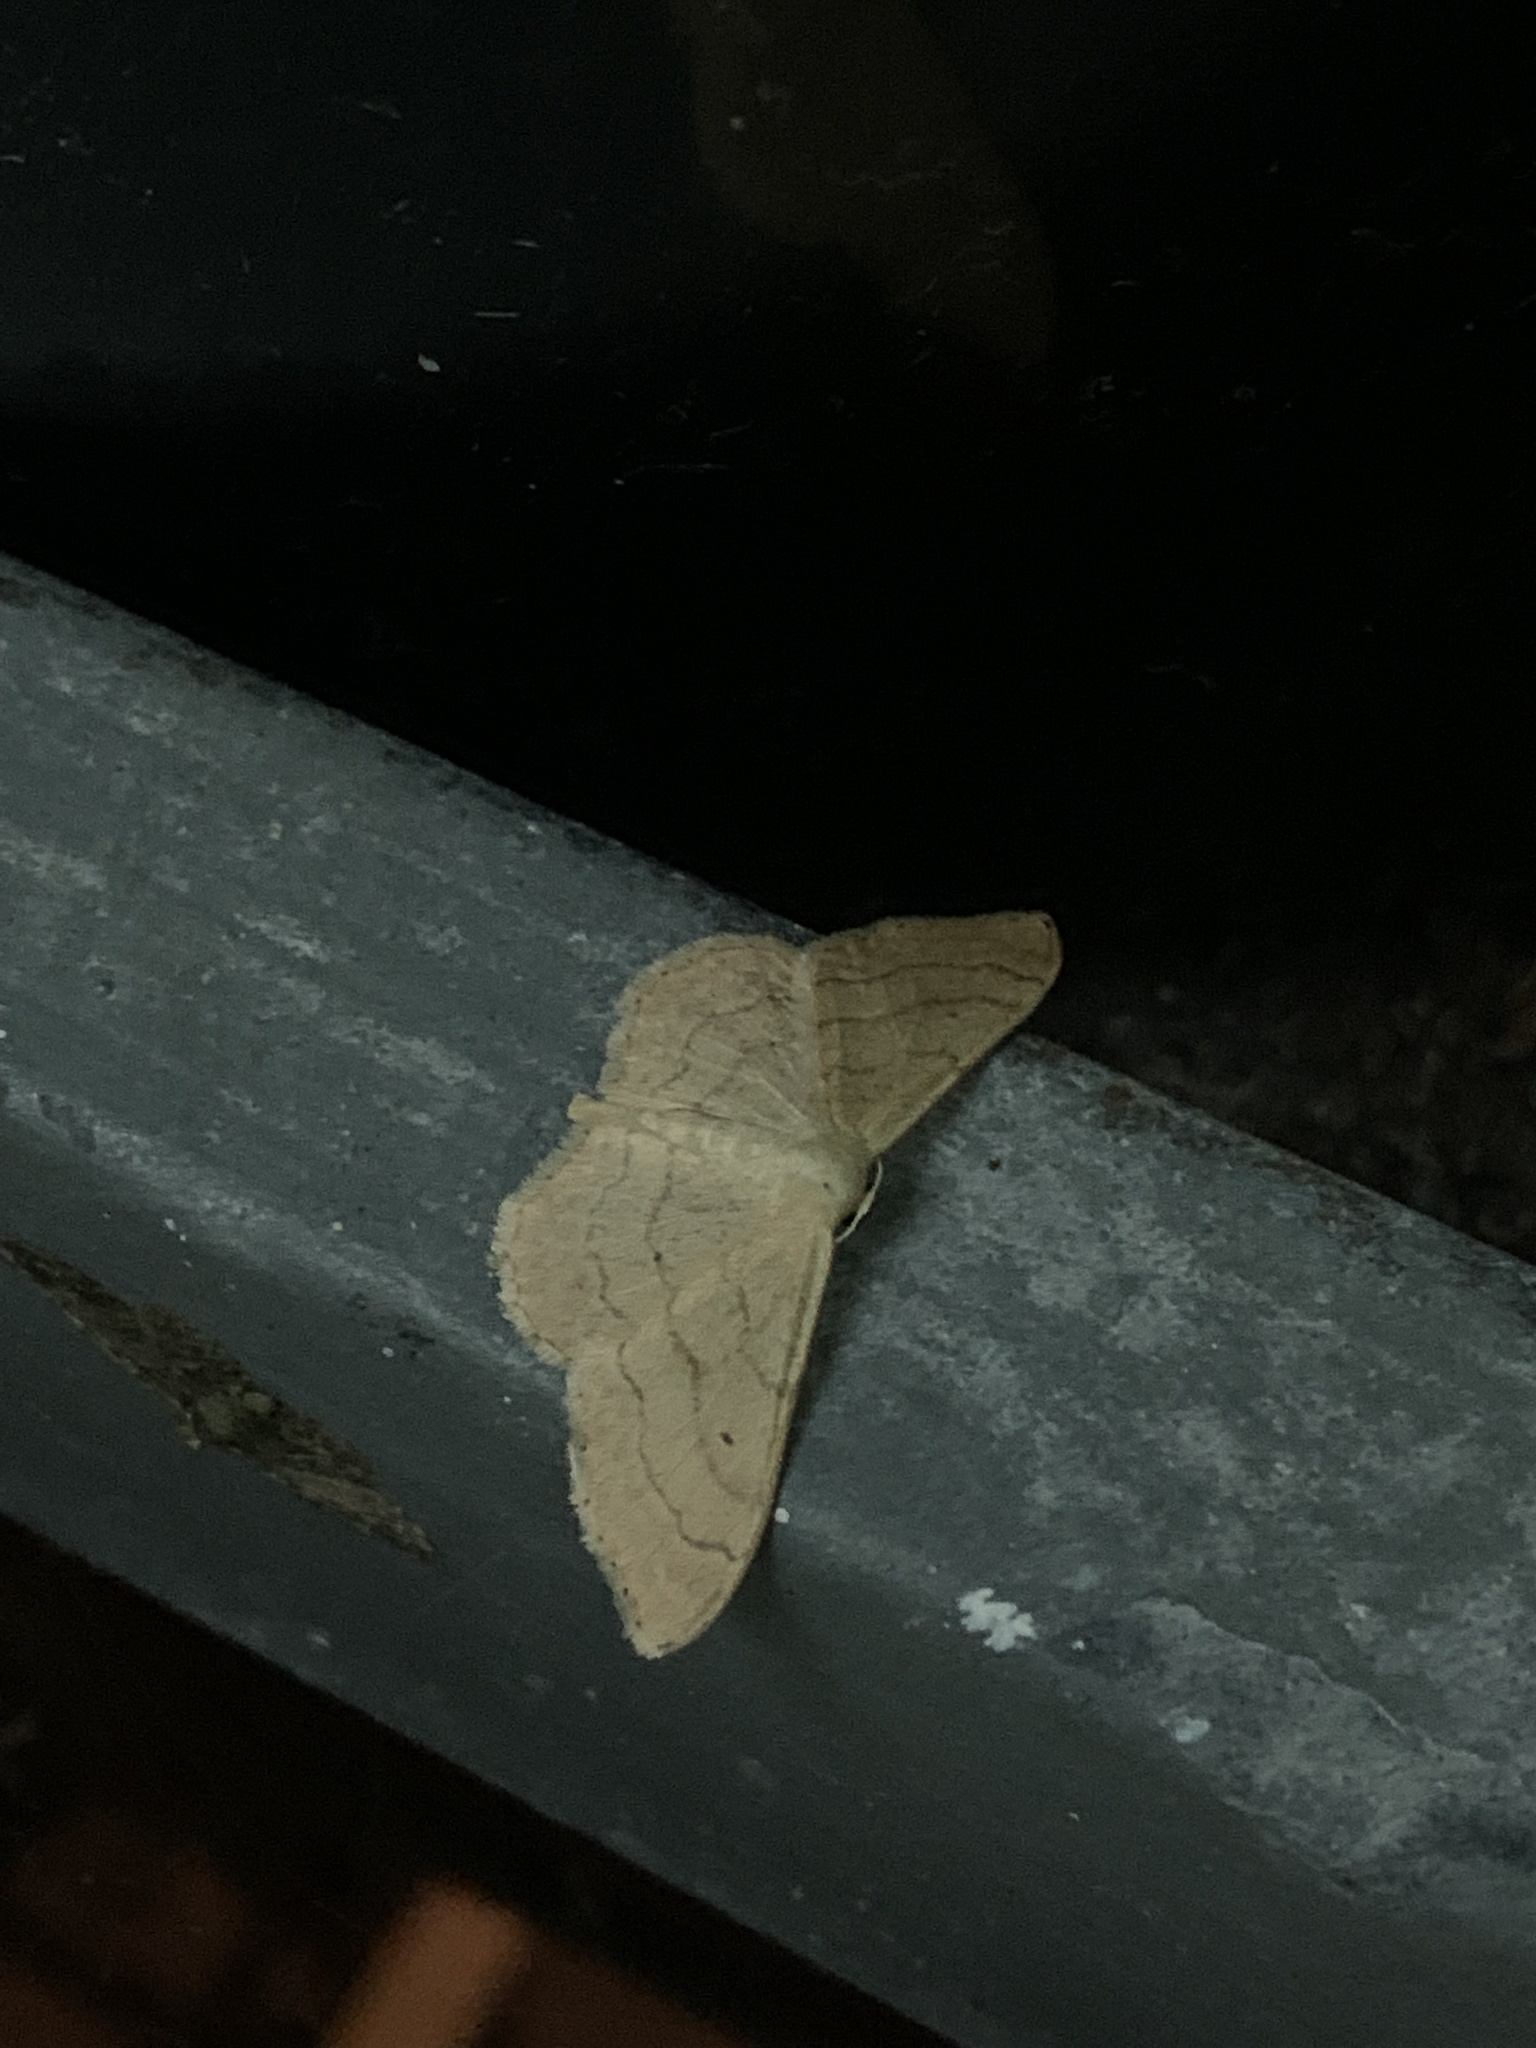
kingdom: Animalia
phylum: Arthropoda
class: Insecta
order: Lepidoptera
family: Geometridae
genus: Idaea
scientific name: Idaea aversata
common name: Riband wave
